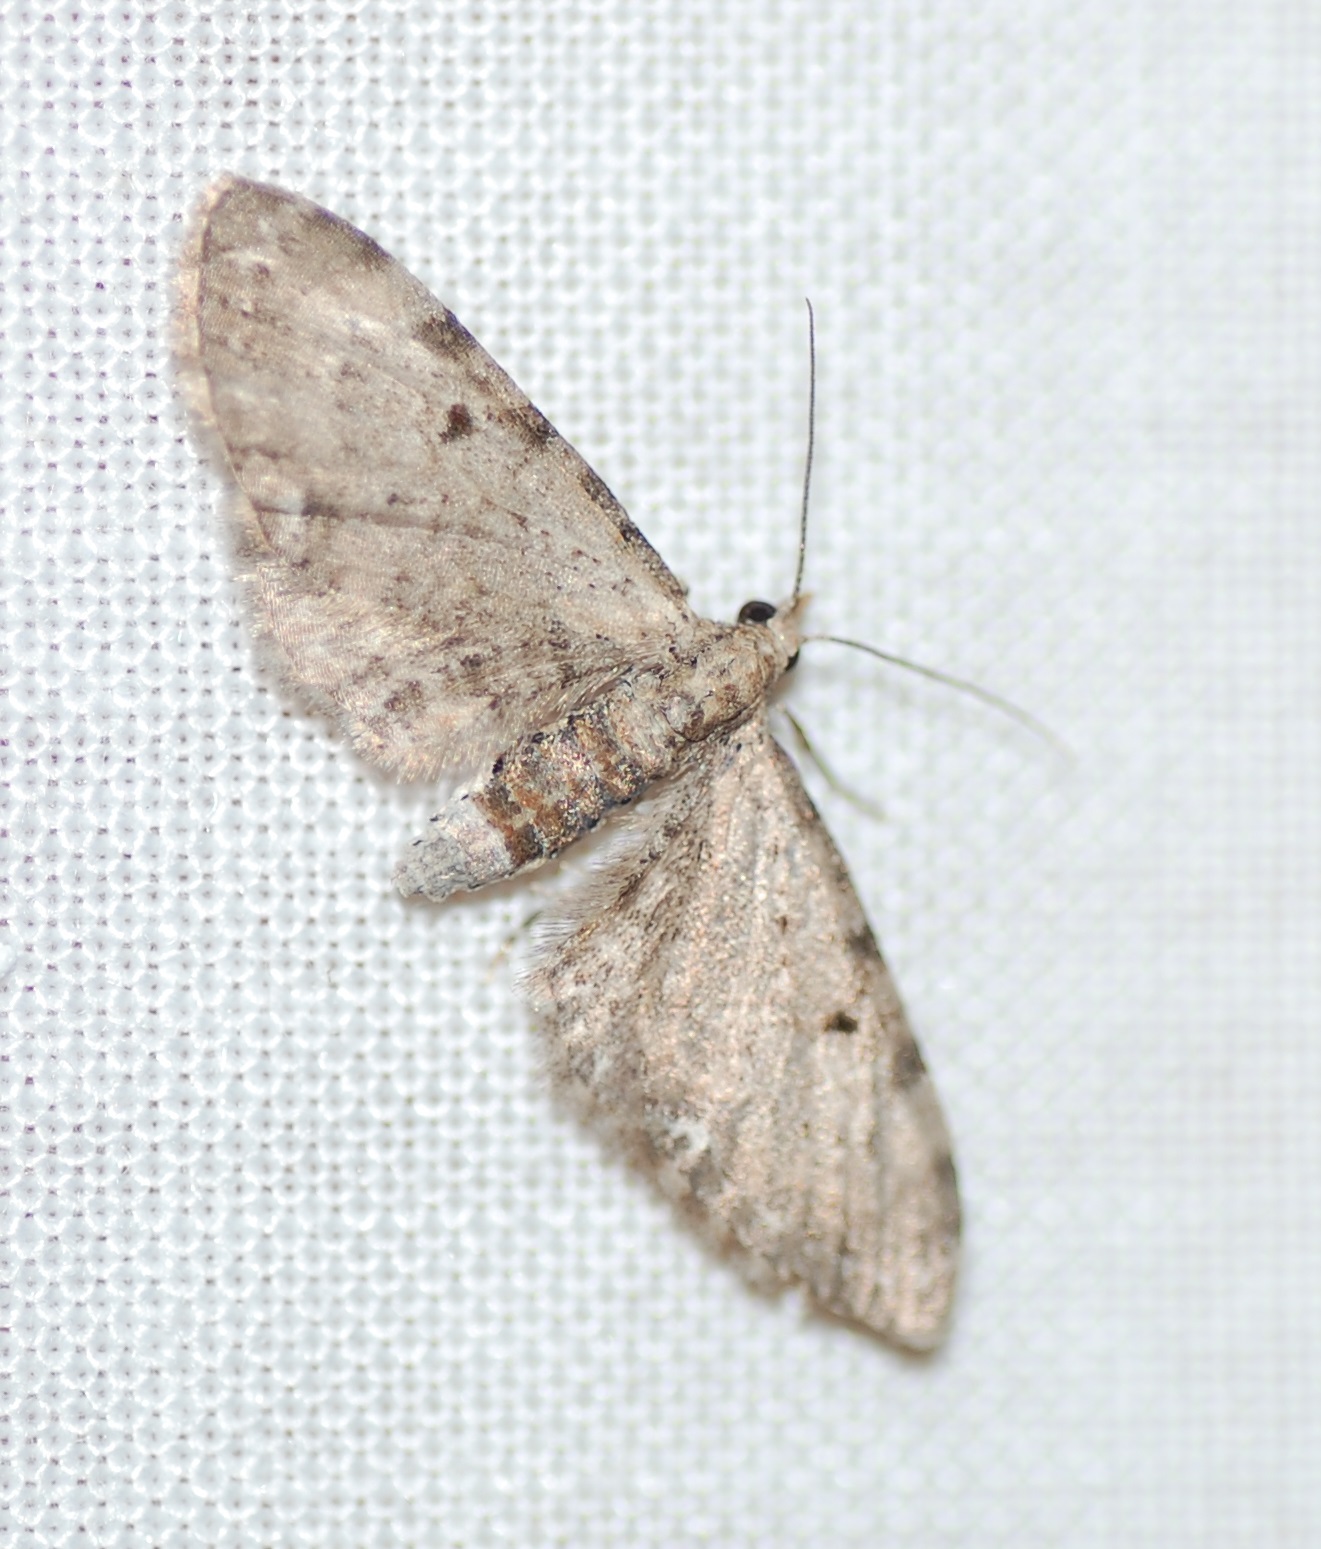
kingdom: Animalia
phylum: Arthropoda
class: Insecta
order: Lepidoptera
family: Geometridae
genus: Eupithecia
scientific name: Eupithecia miserulata
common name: Common eupithecia
